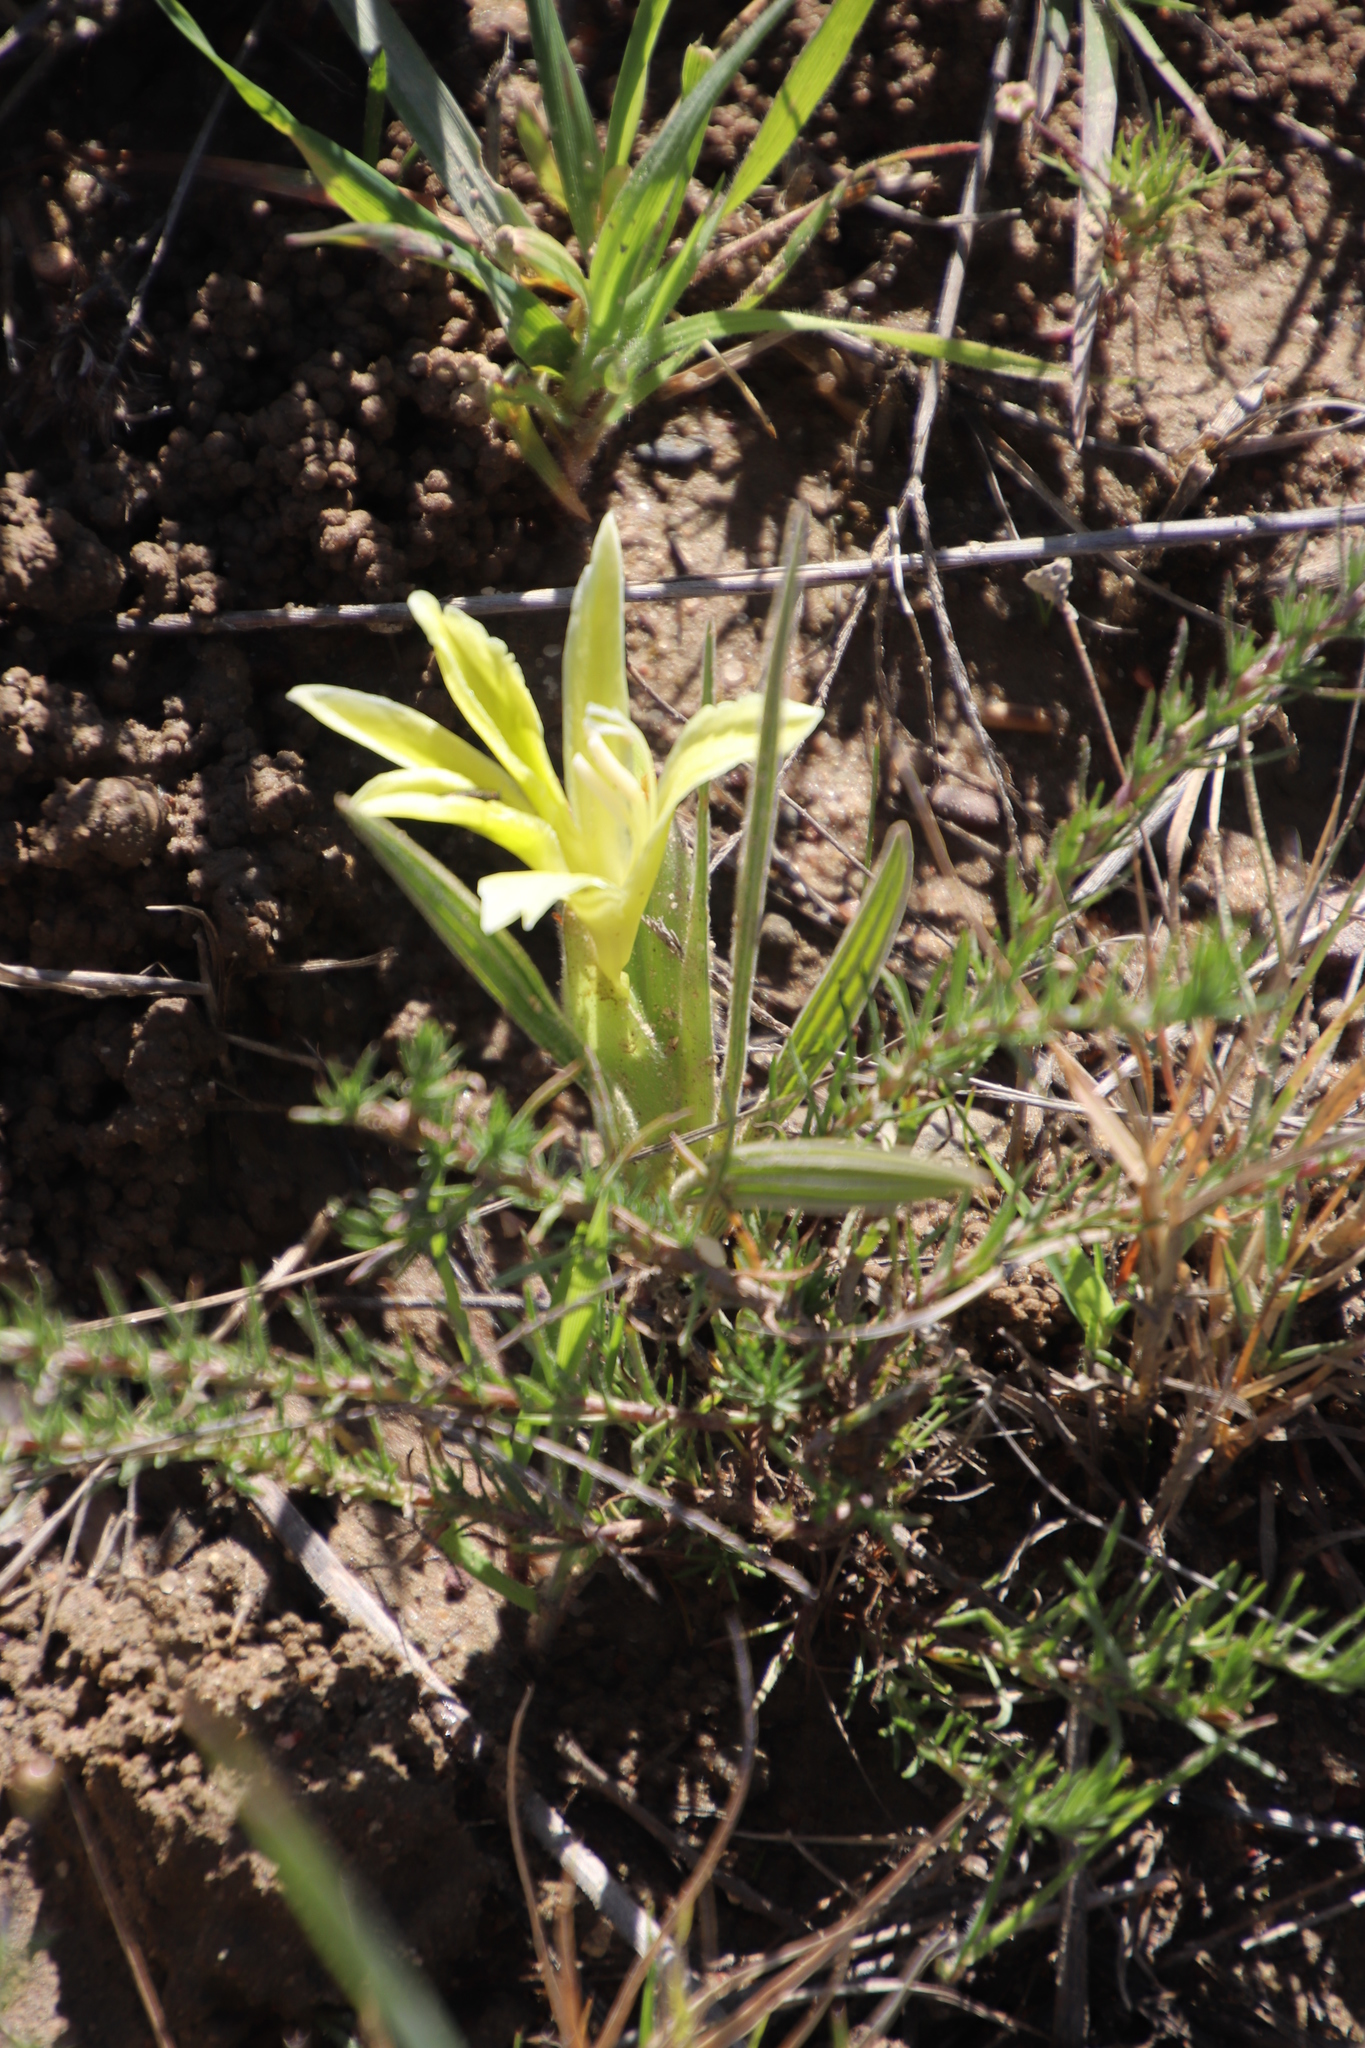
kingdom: Plantae
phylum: Tracheophyta
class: Liliopsida
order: Asparagales
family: Iridaceae
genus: Babiana
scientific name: Babiana vanzijliae
